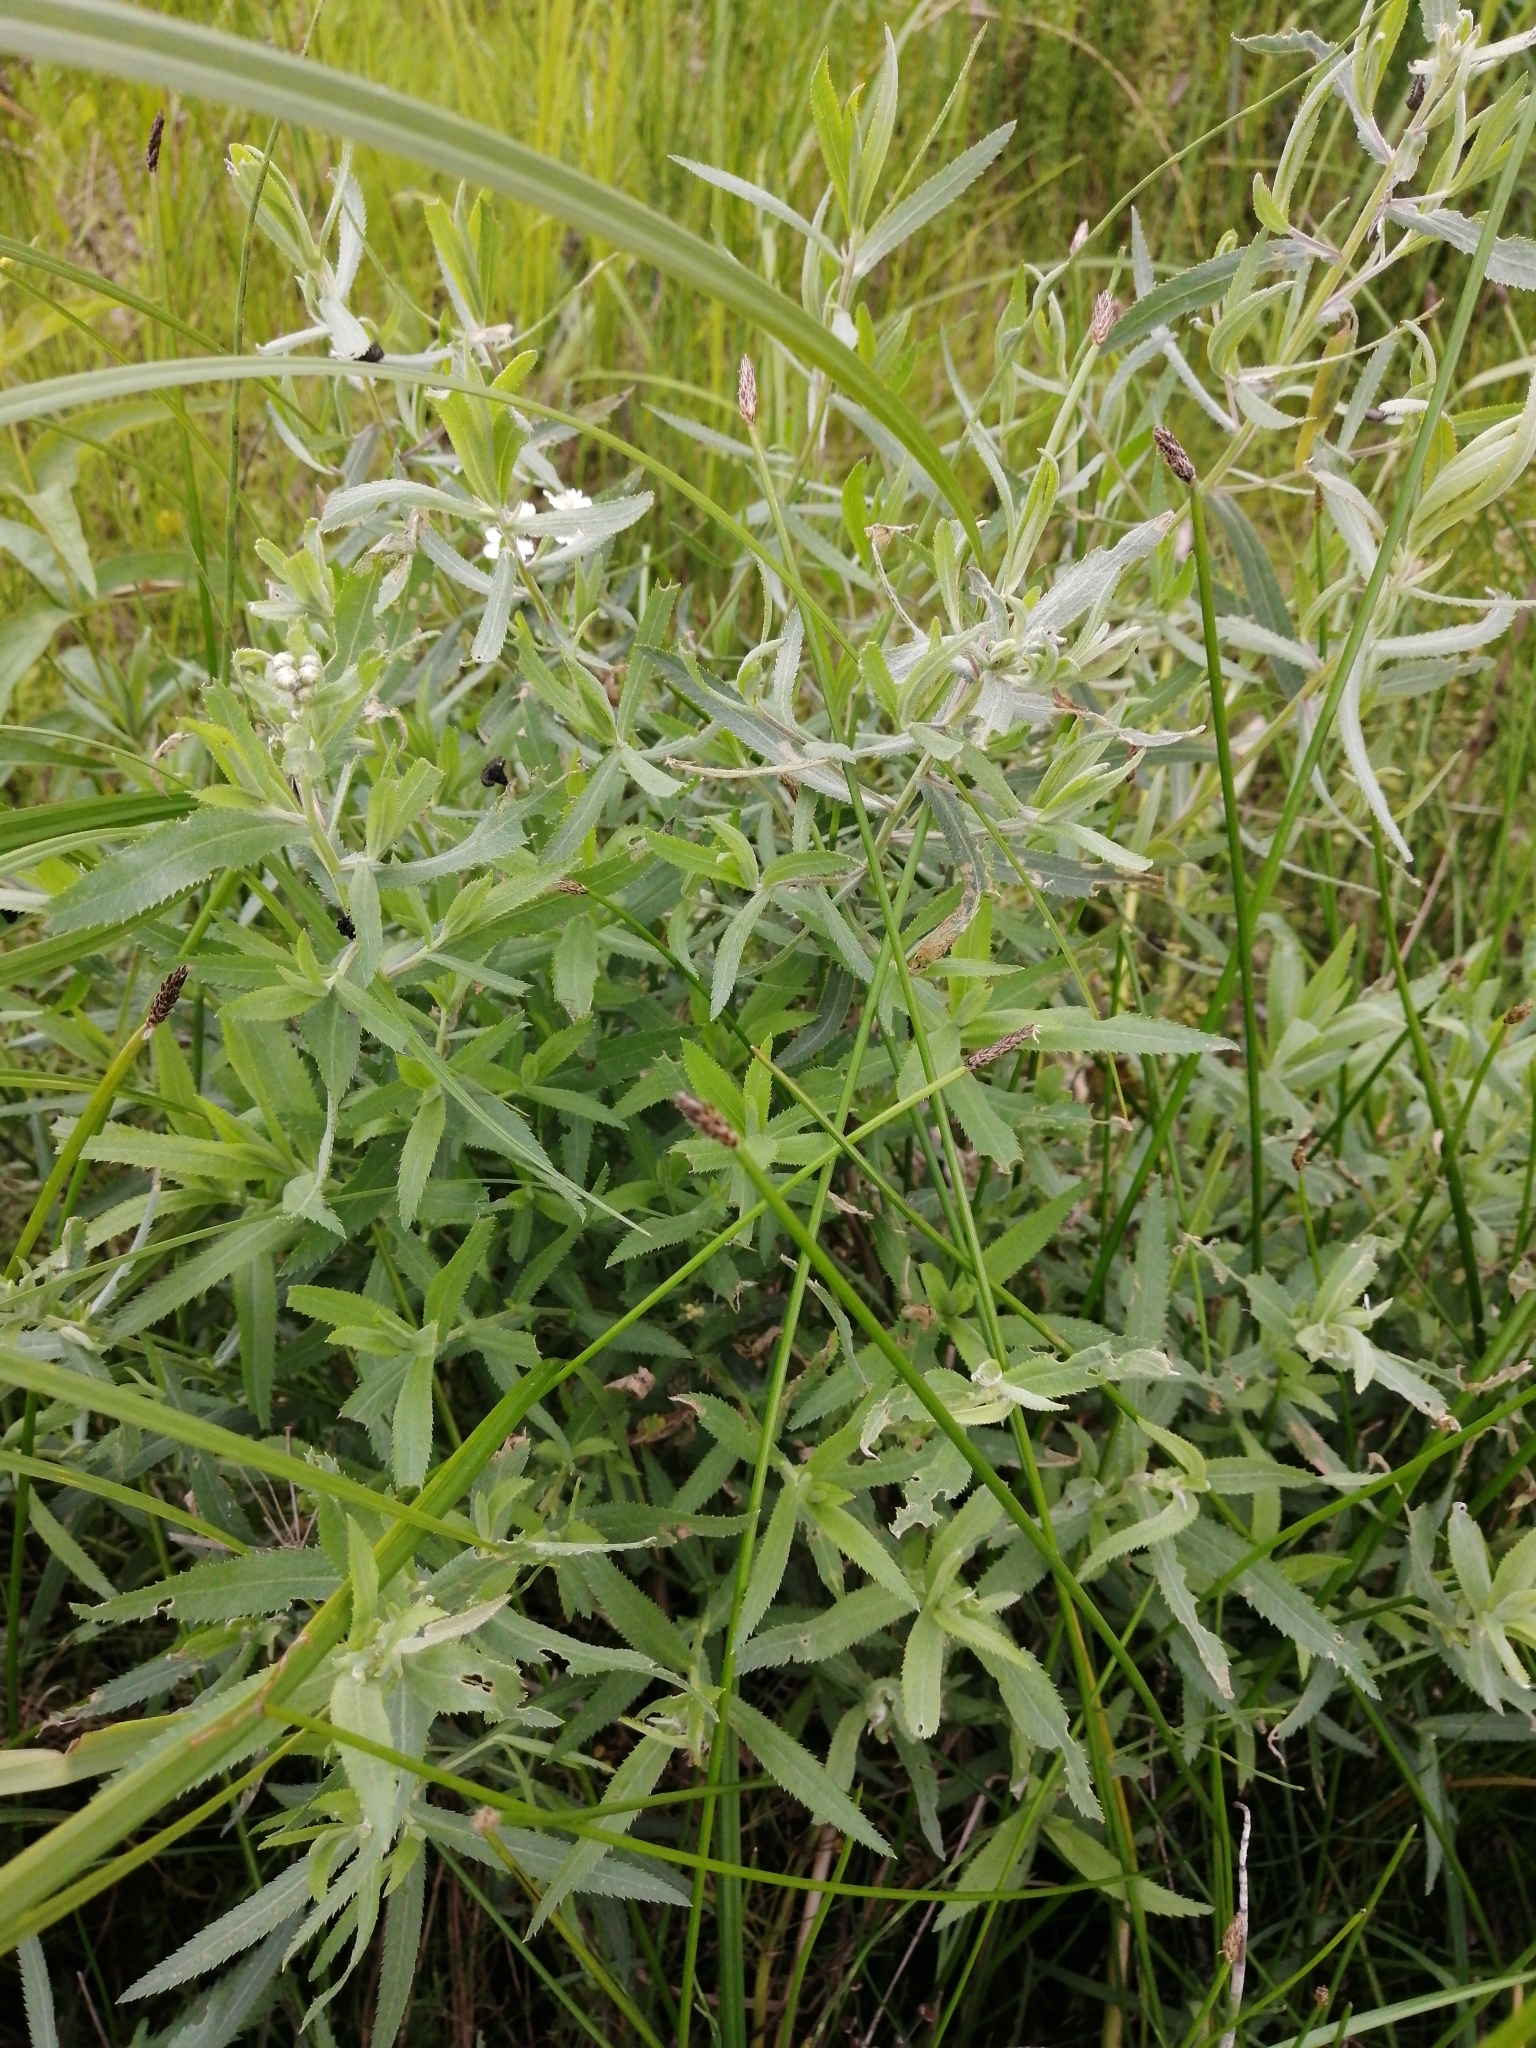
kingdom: Plantae
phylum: Tracheophyta
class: Magnoliopsida
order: Asterales
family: Asteraceae
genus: Achillea
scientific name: Achillea salicifolia
